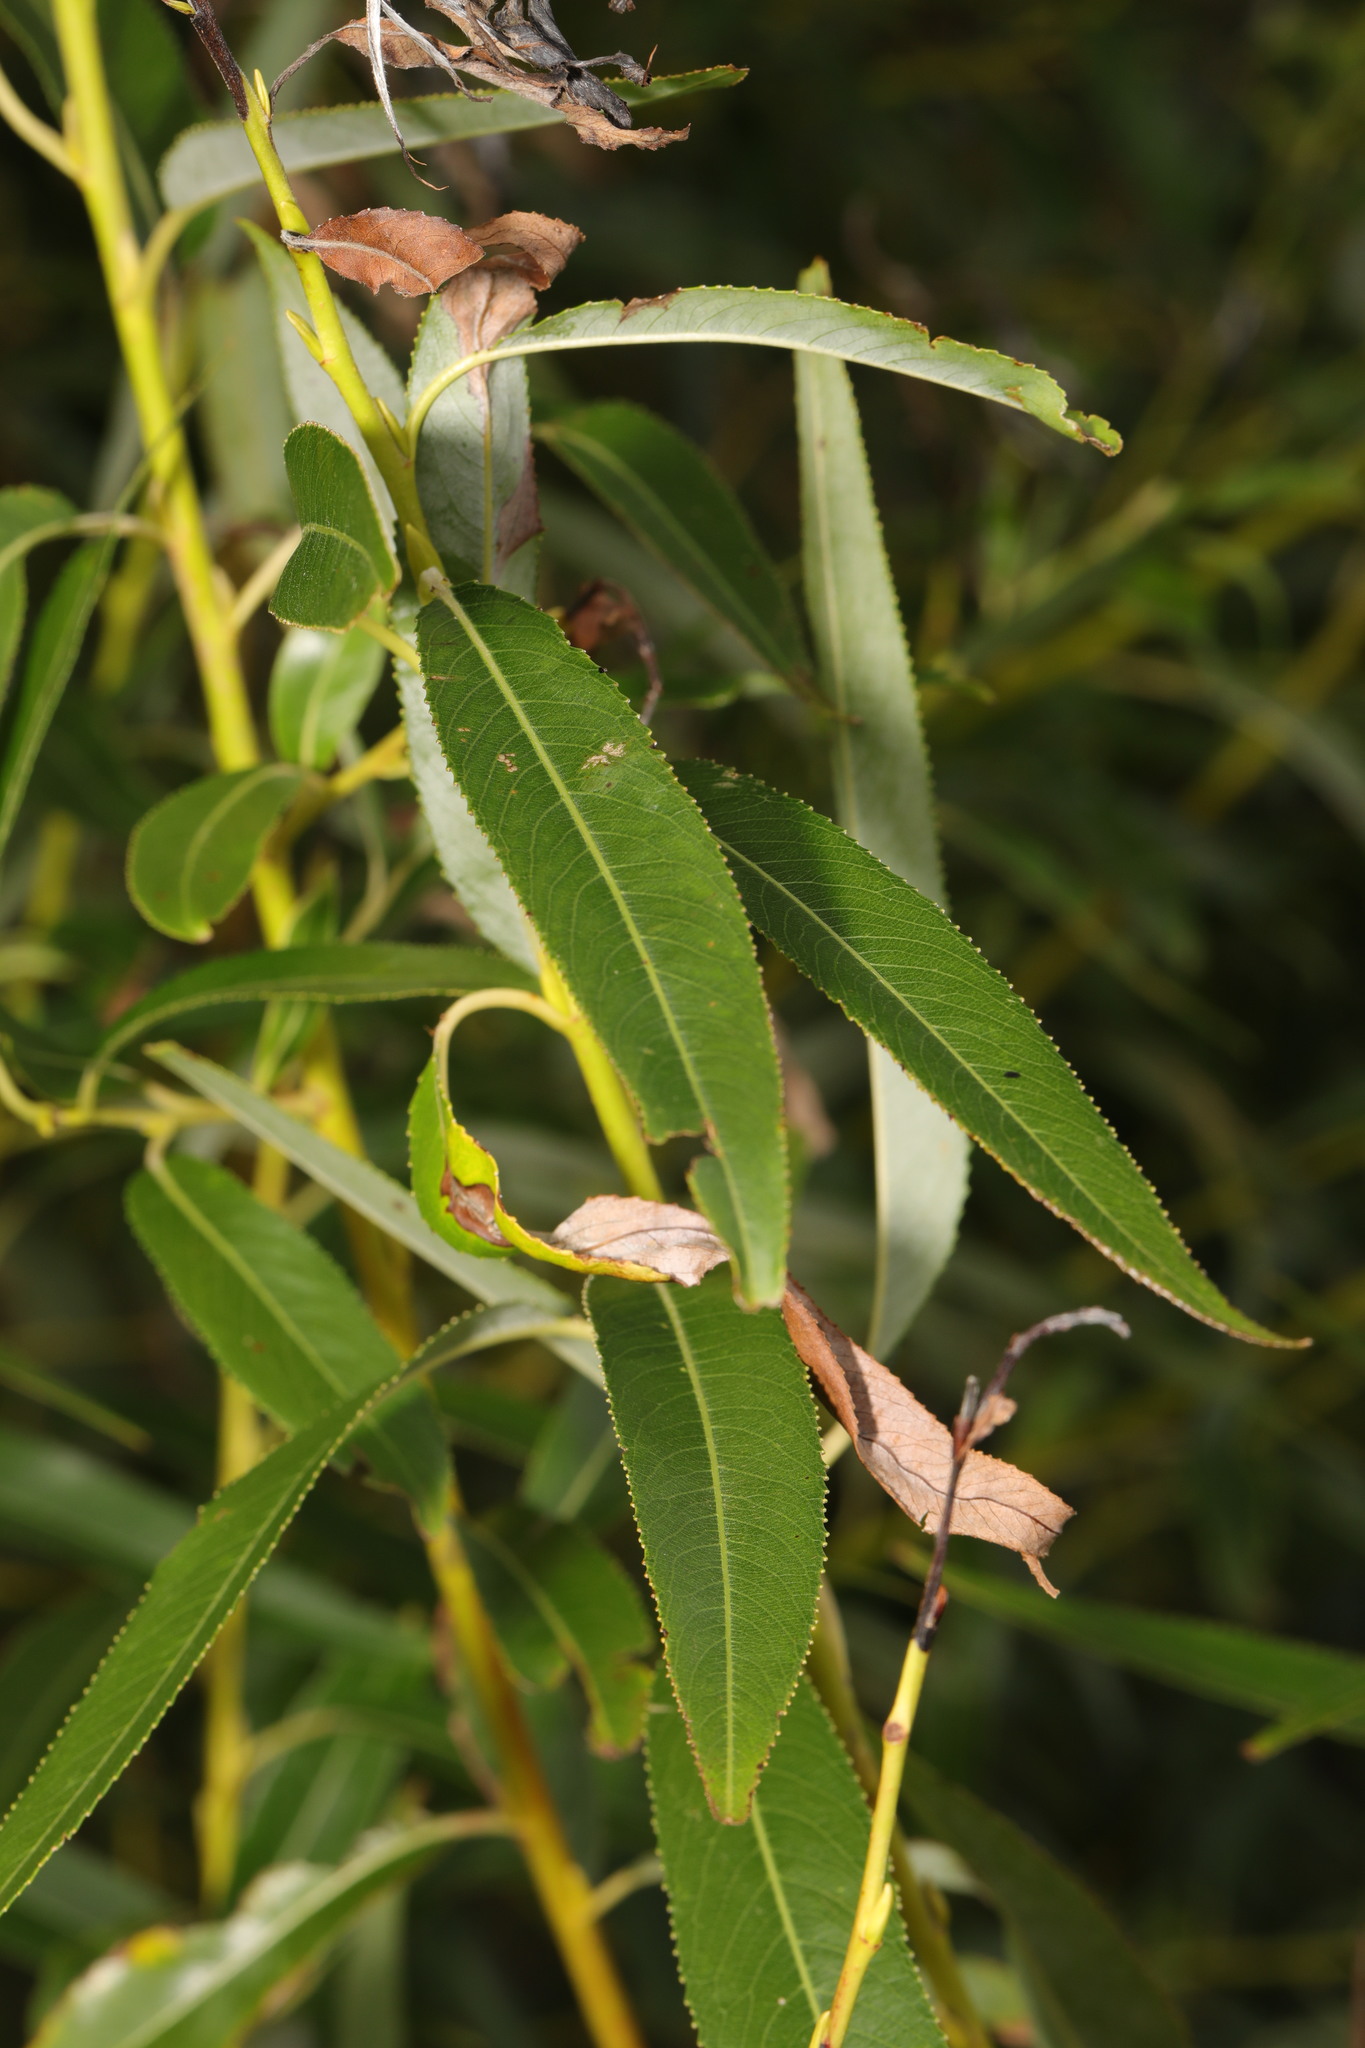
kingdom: Plantae
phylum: Tracheophyta
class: Magnoliopsida
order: Malpighiales
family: Salicaceae
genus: Salix
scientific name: Salix fragilis
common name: Crack willow
